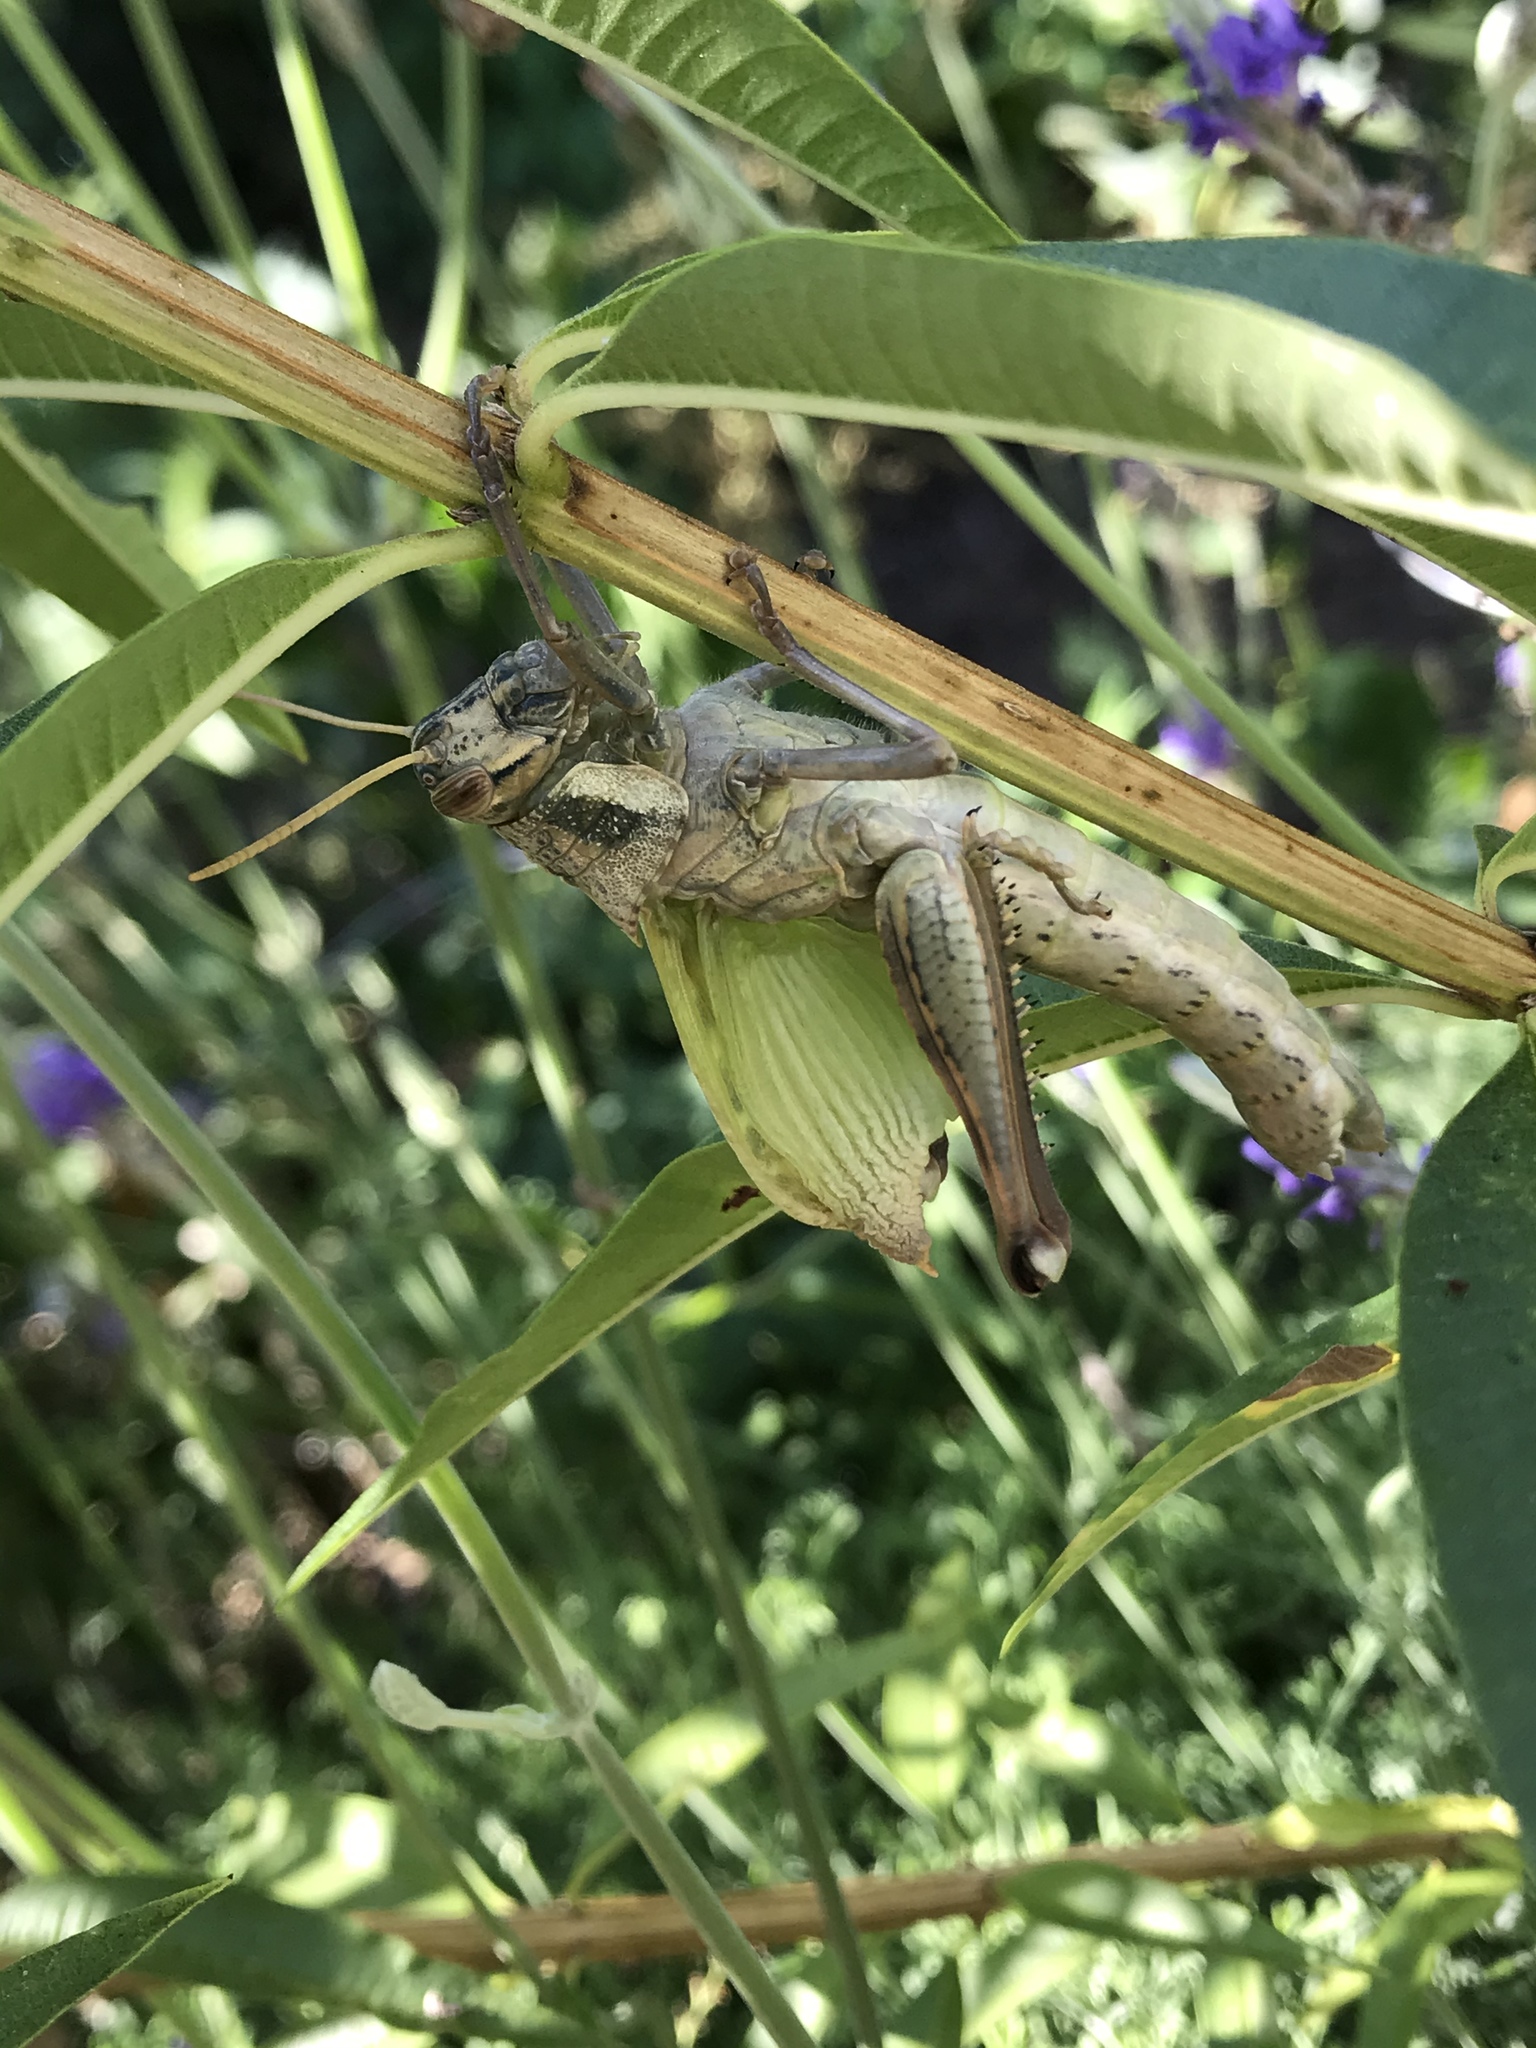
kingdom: Animalia
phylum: Arthropoda
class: Insecta
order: Orthoptera
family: Acrididae
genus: Schistocerca
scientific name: Schistocerca nitens
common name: Vagrant grasshopper
